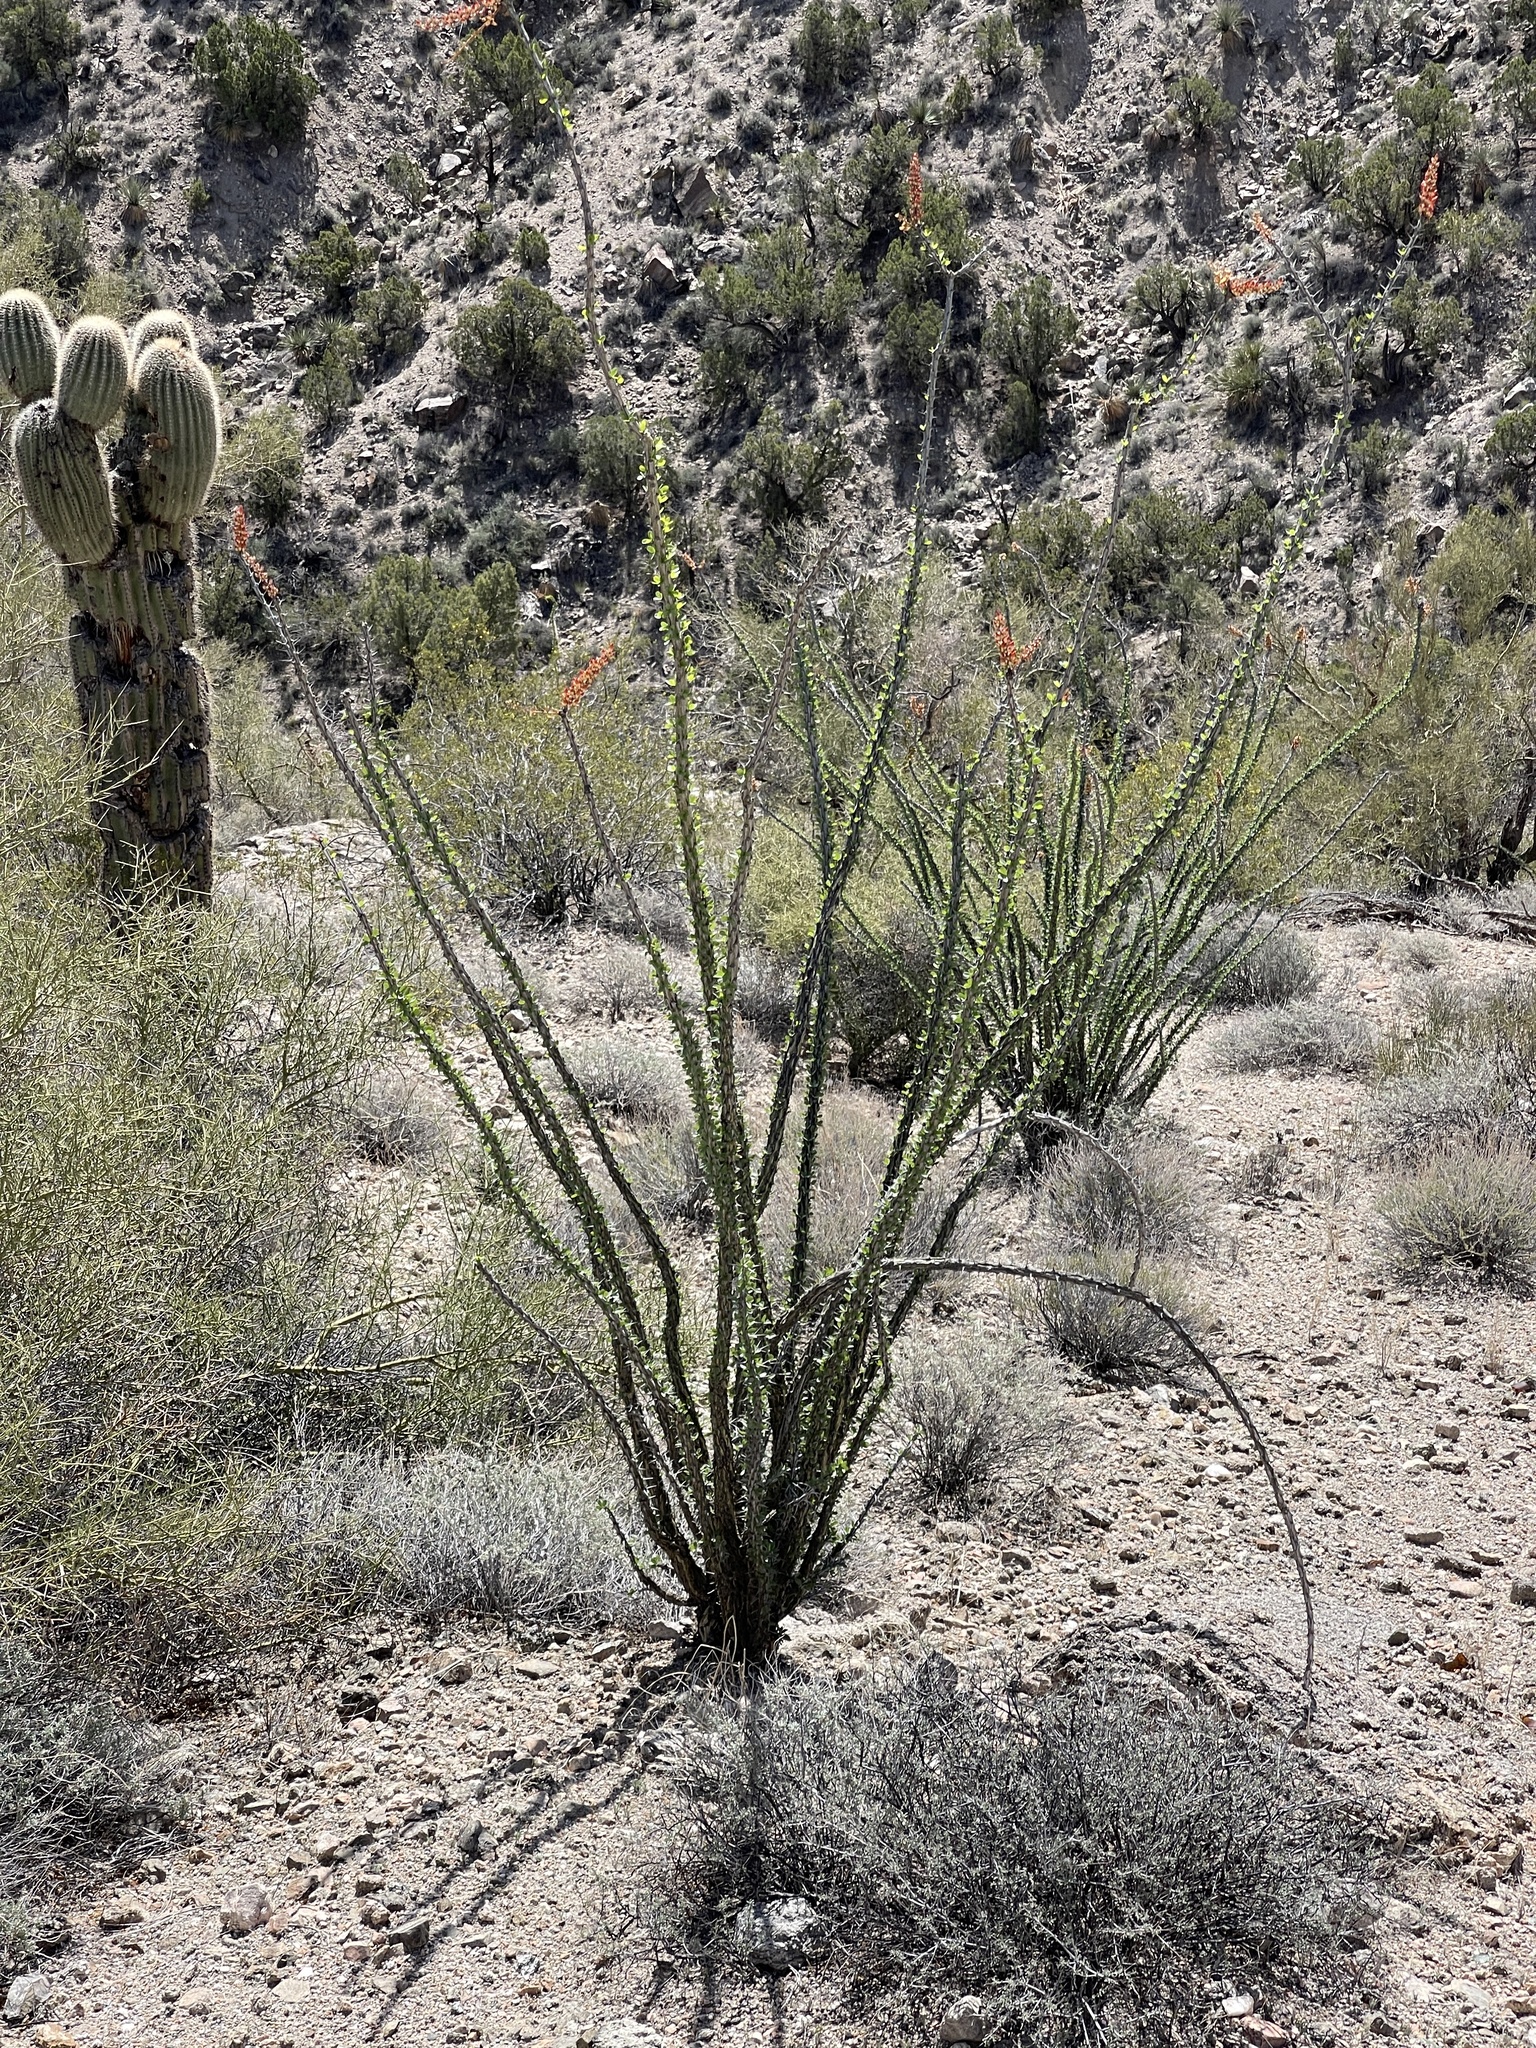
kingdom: Plantae
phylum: Tracheophyta
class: Magnoliopsida
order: Ericales
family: Fouquieriaceae
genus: Fouquieria
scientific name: Fouquieria splendens
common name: Vine-cactus
